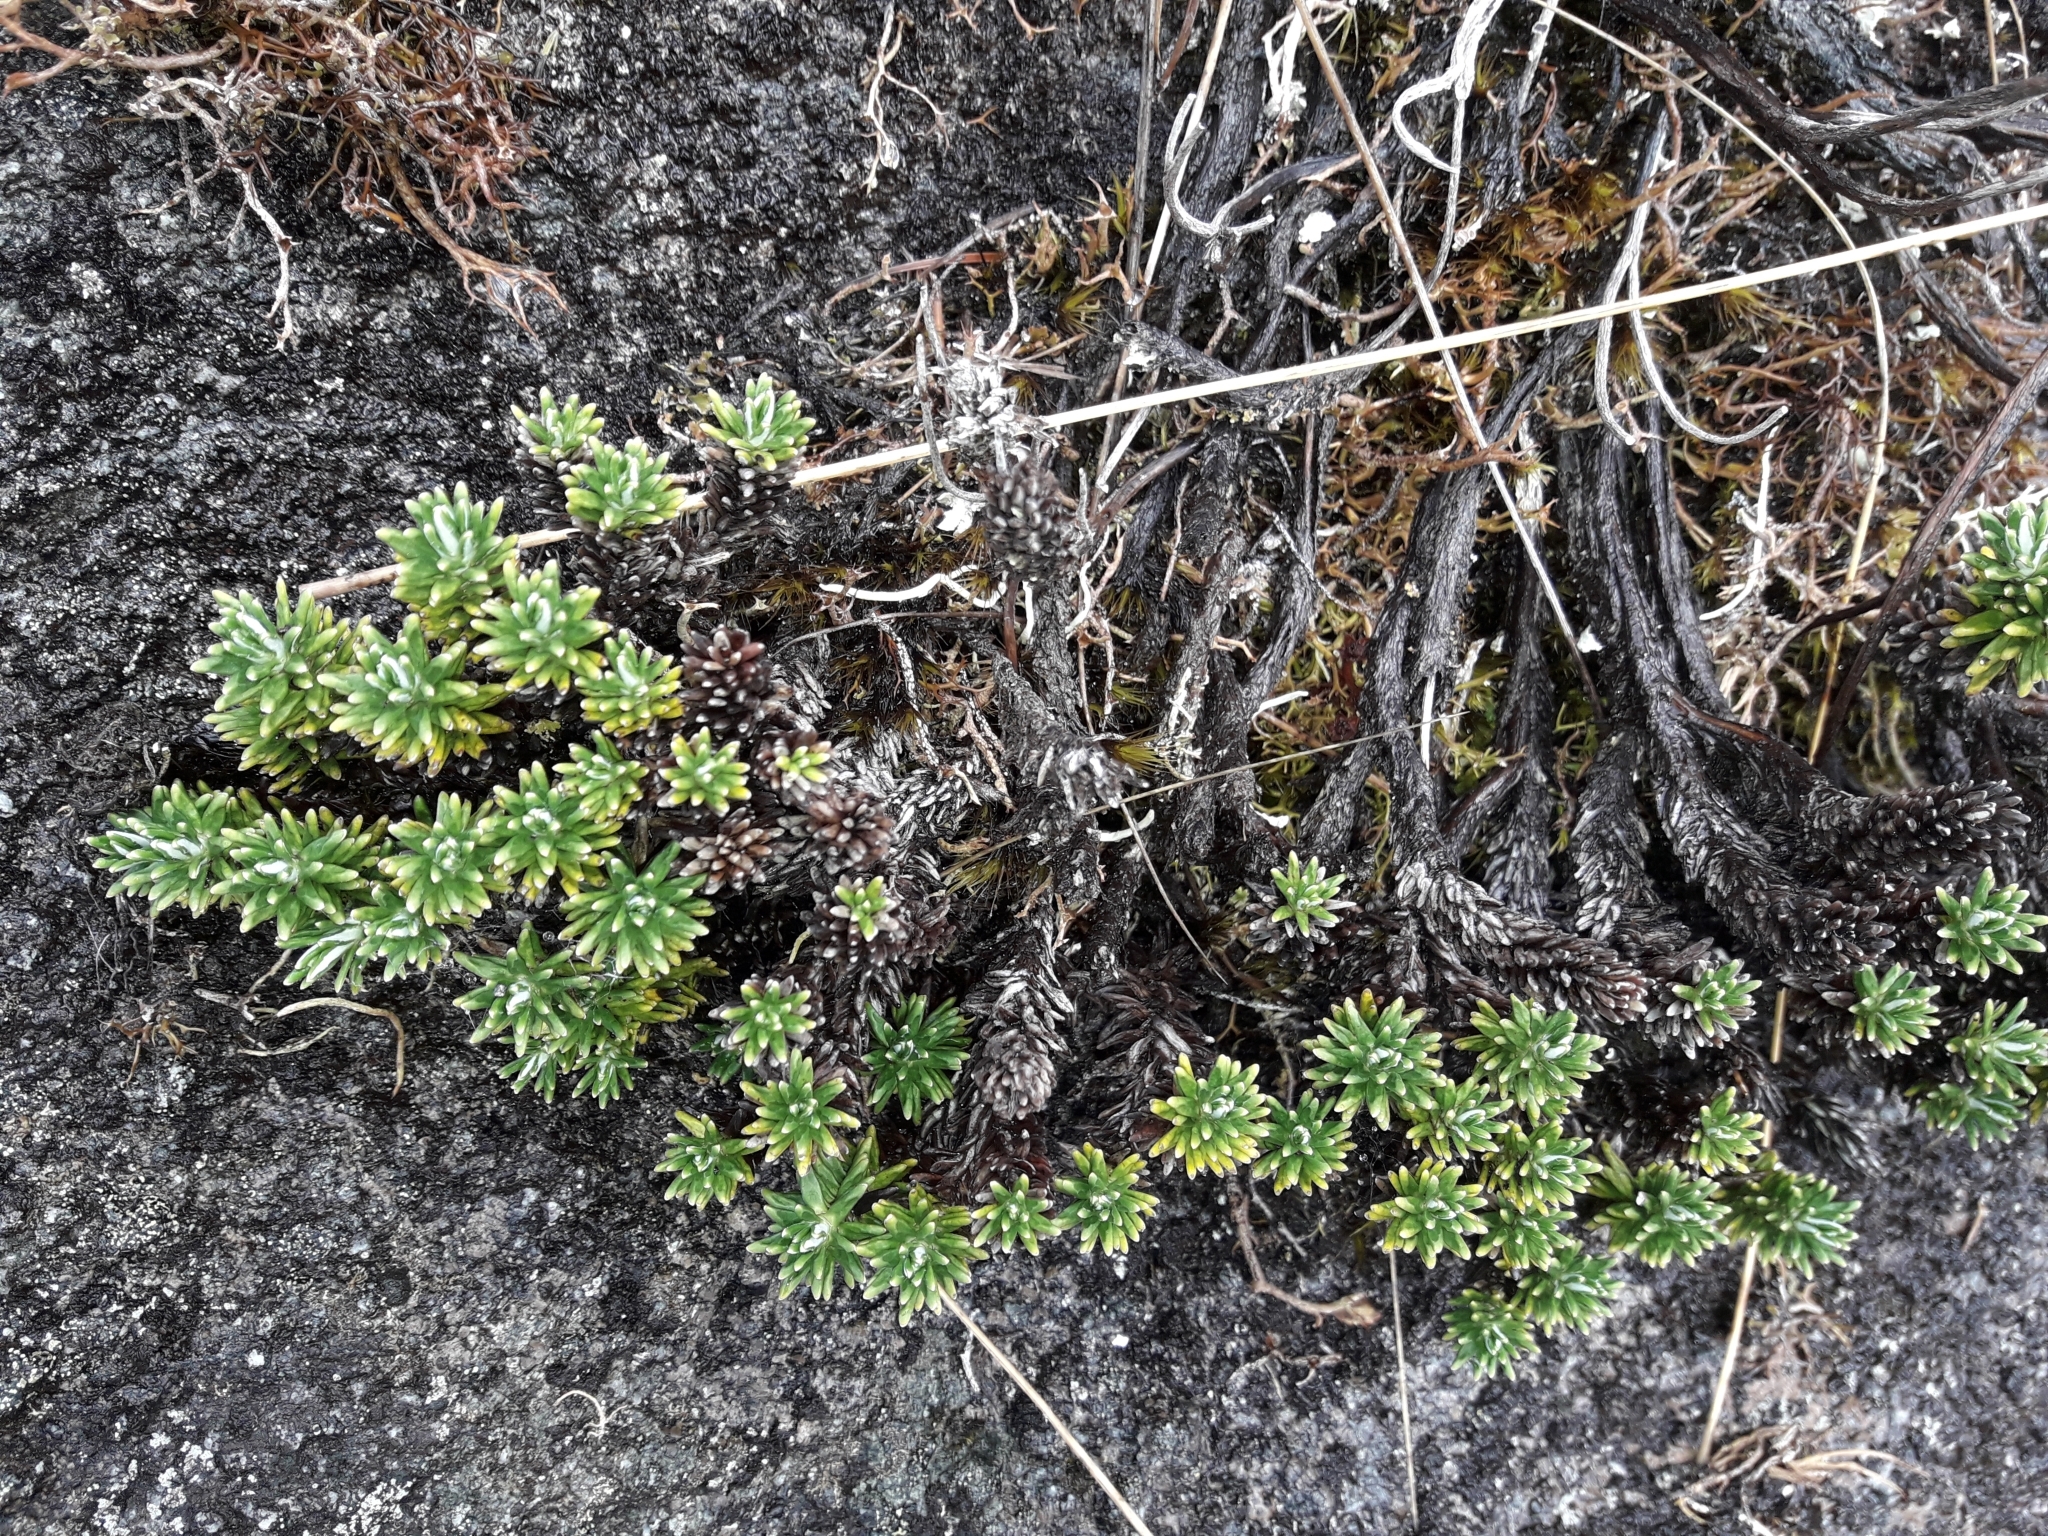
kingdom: Plantae
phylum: Tracheophyta
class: Magnoliopsida
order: Asterales
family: Asteraceae
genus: Celmisia
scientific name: Celmisia walkeri
